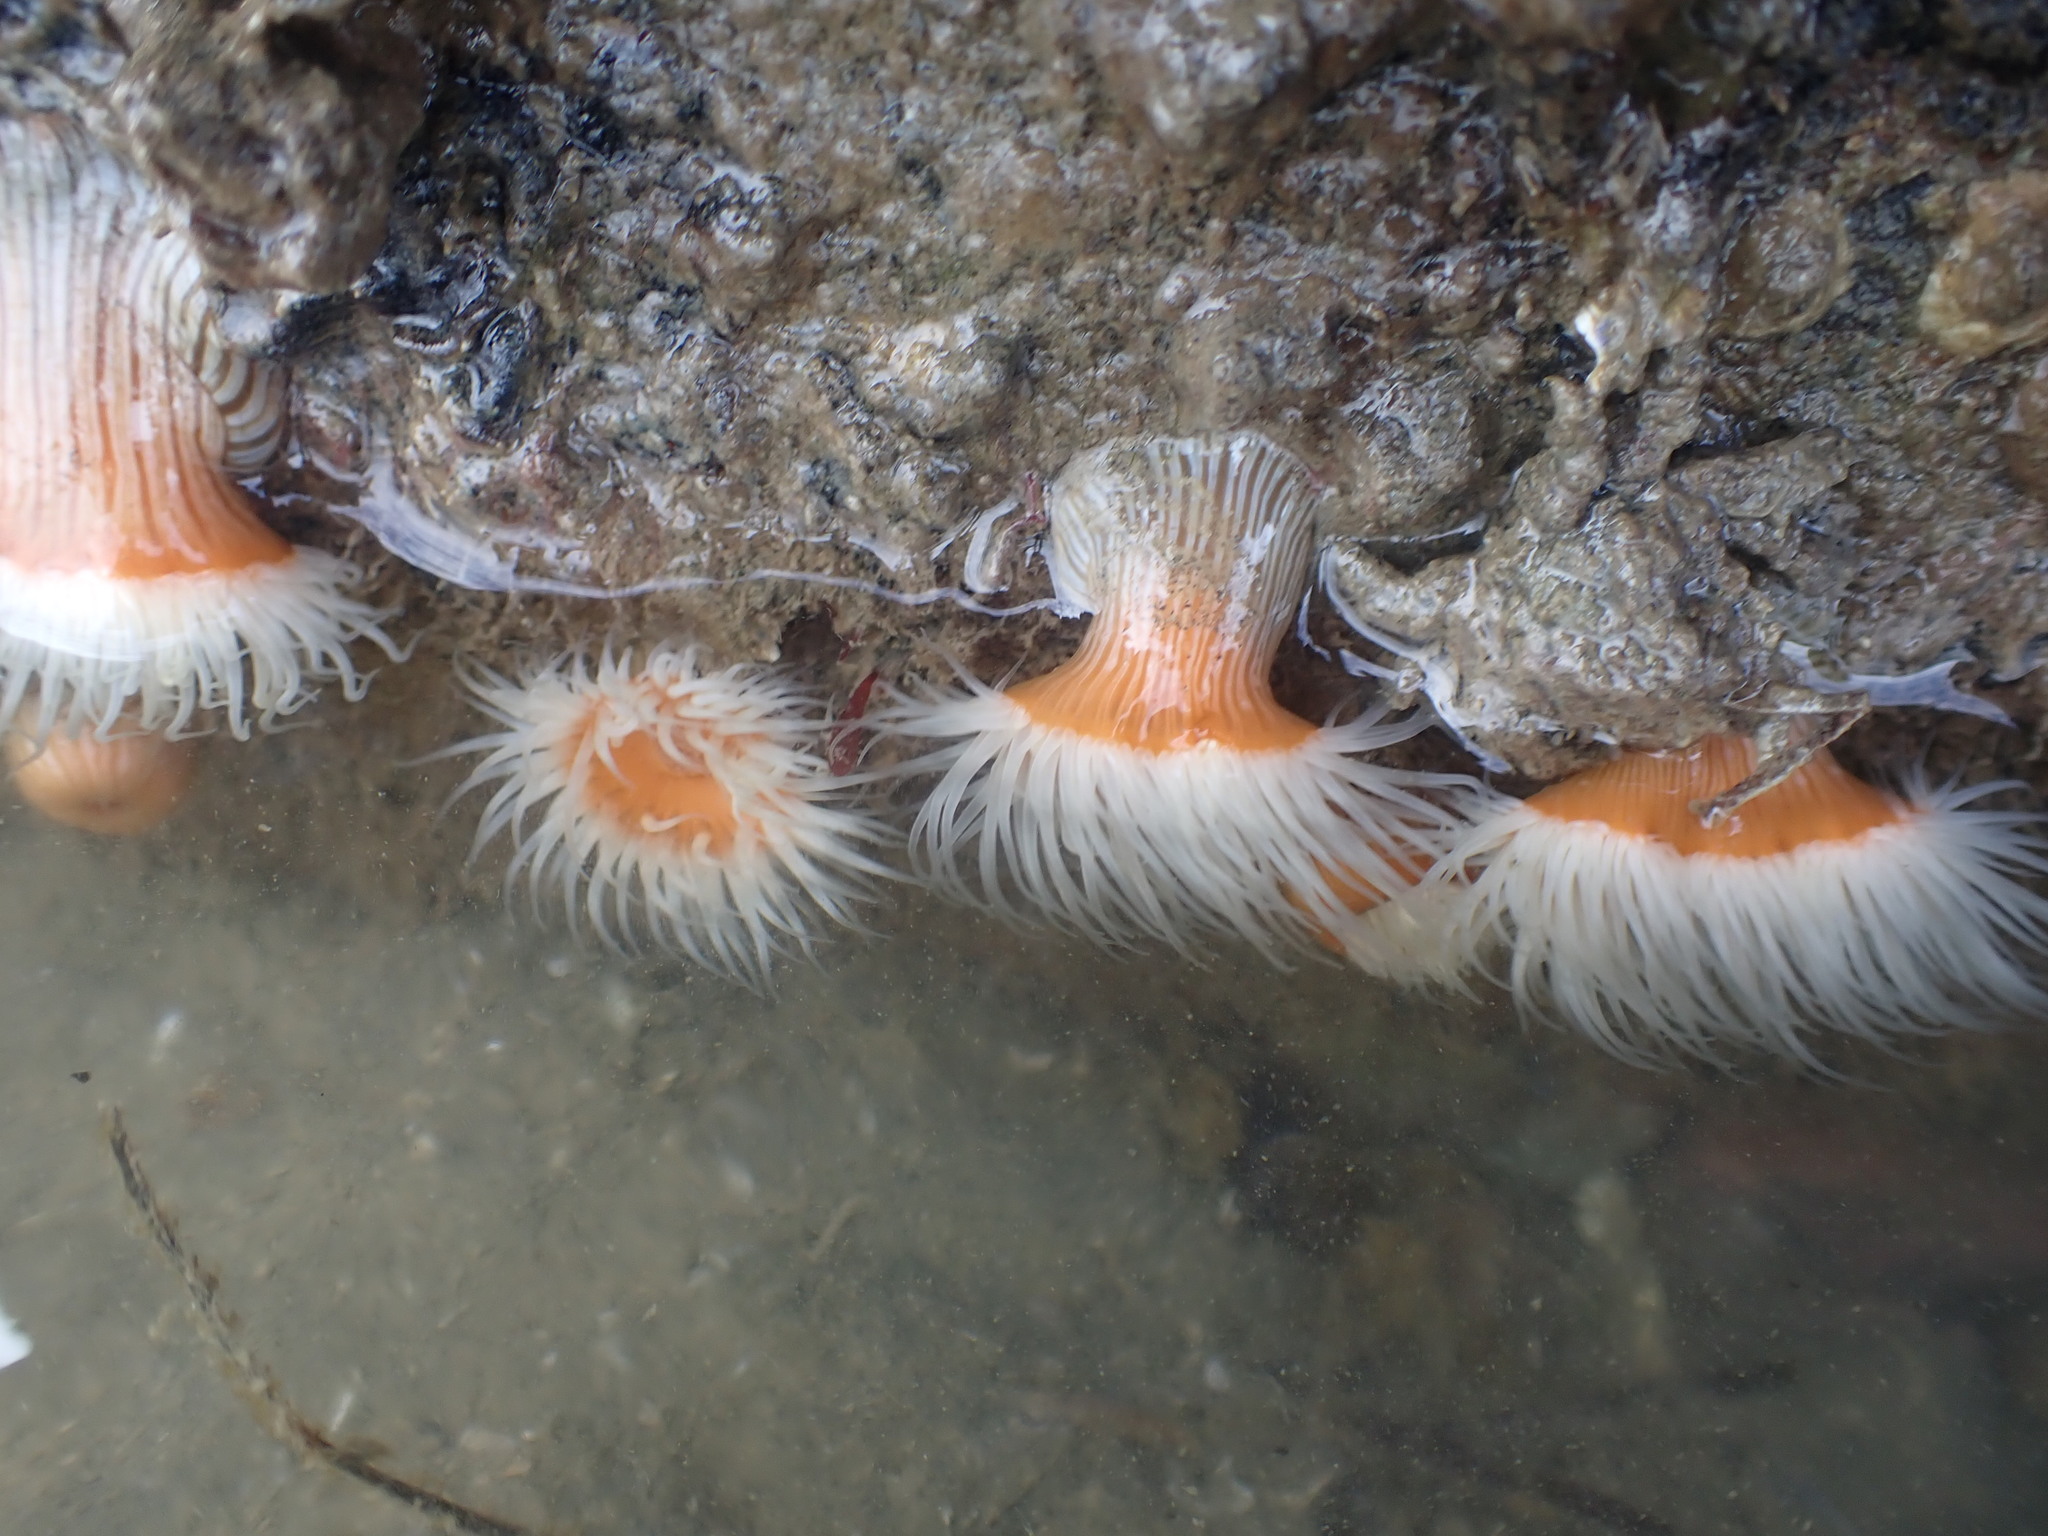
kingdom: Animalia
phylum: Cnidaria
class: Anthozoa
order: Actiniaria
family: Sagartiidae
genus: Anthothoe
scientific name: Anthothoe albocincta
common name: Orange striped anemone
